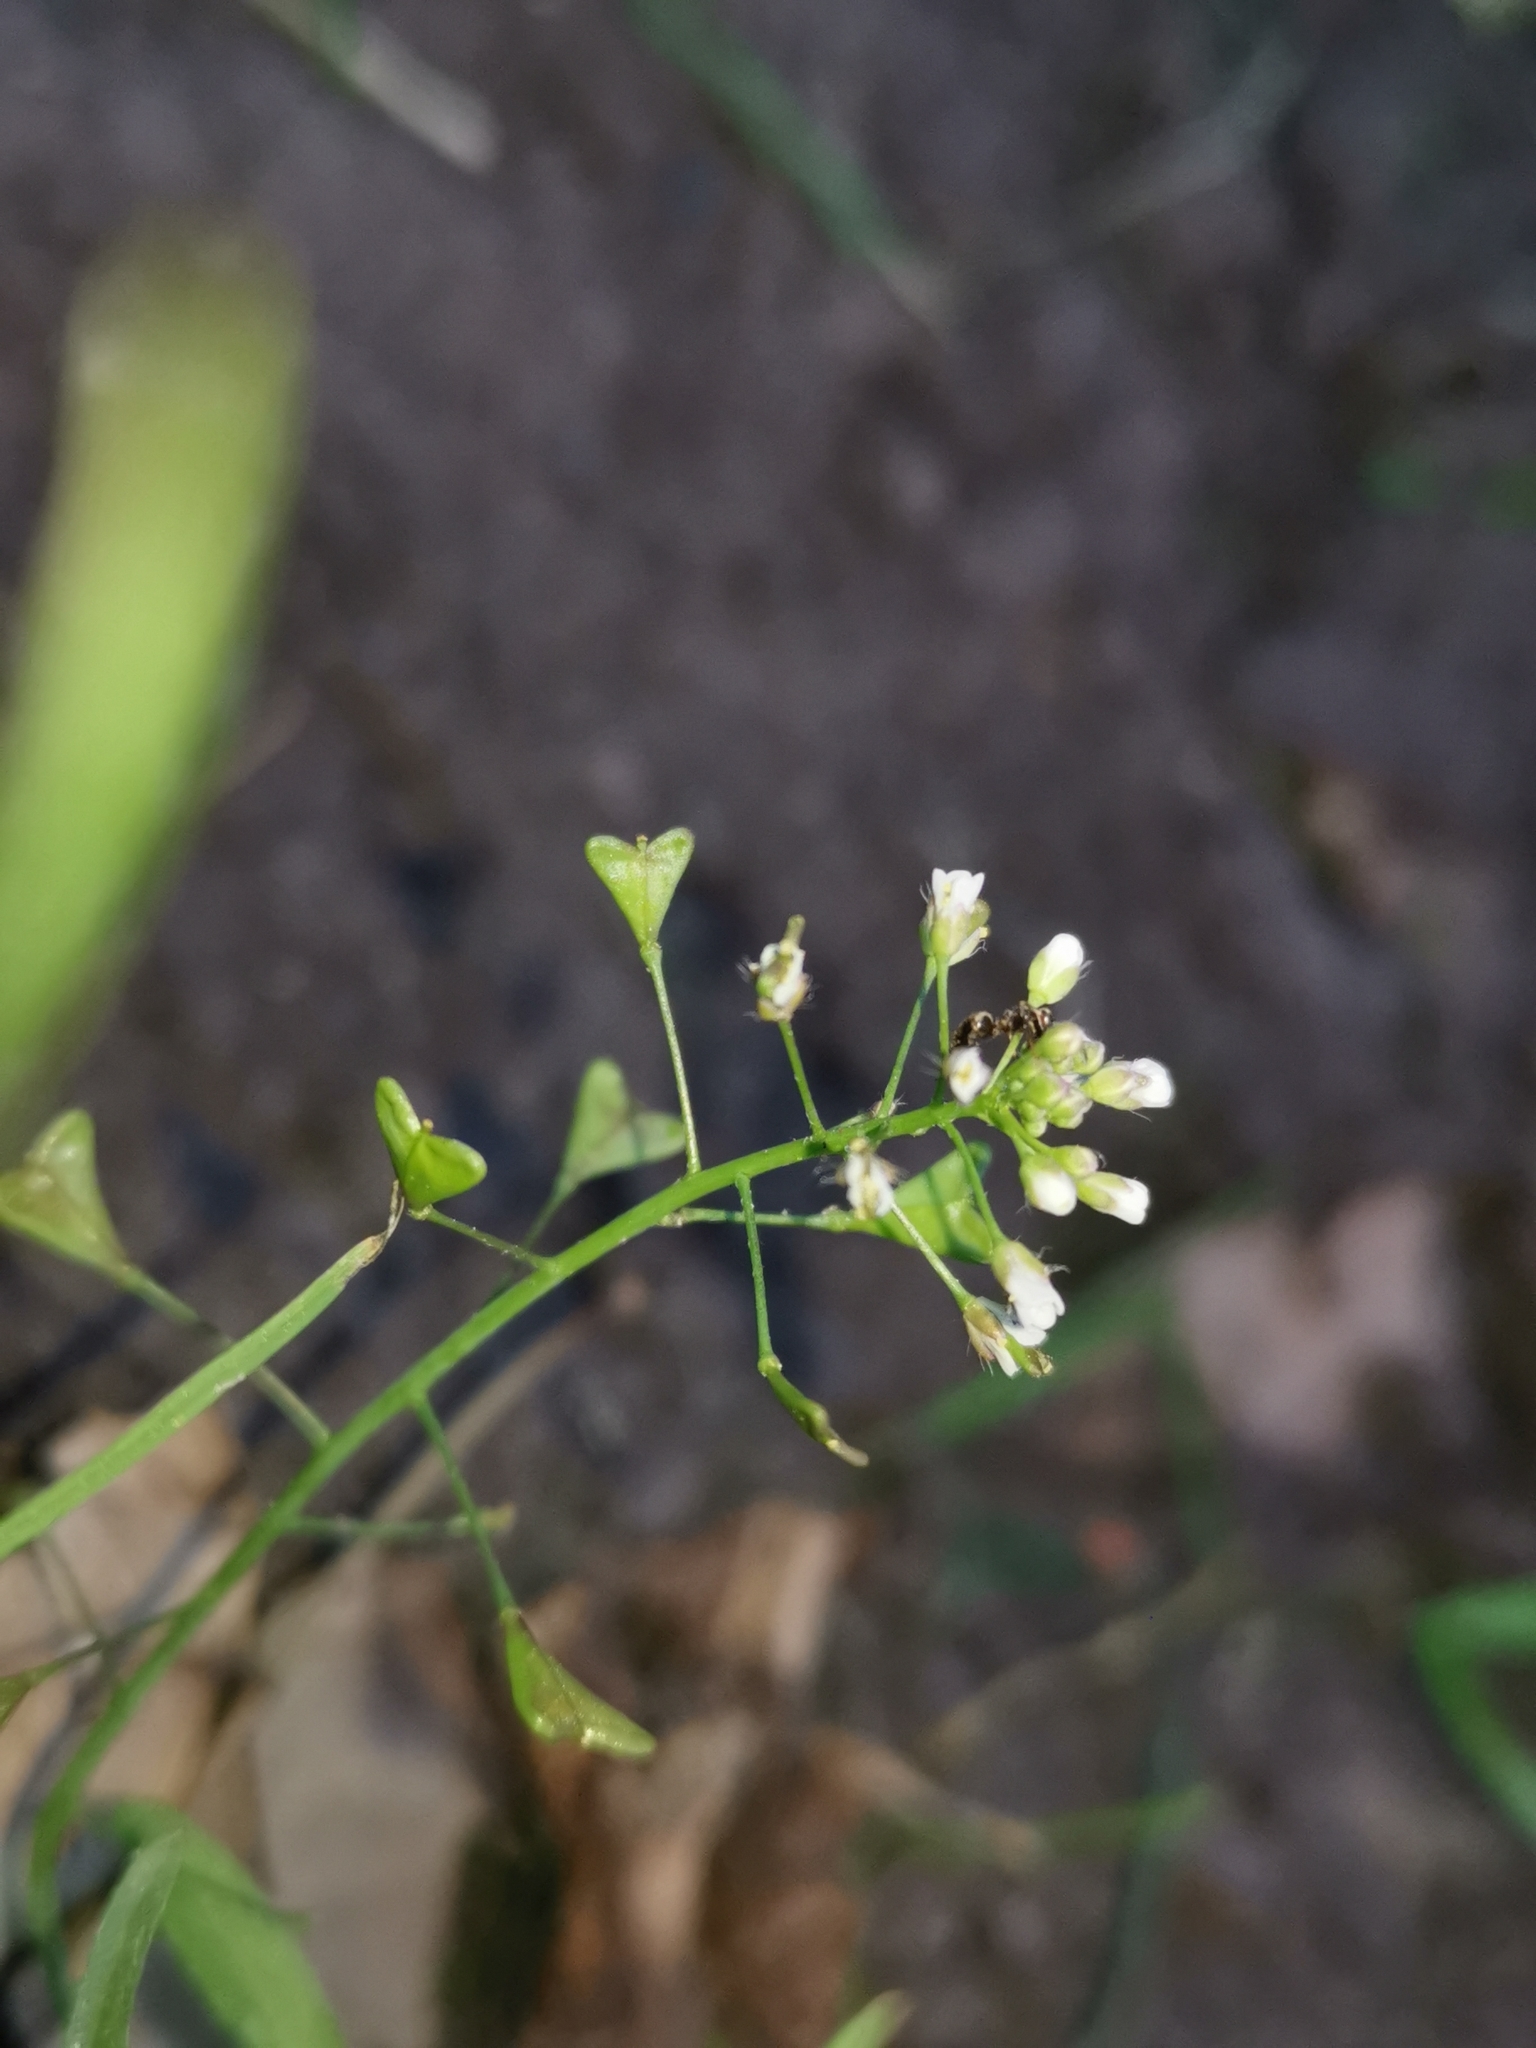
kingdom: Plantae
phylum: Tracheophyta
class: Magnoliopsida
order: Brassicales
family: Brassicaceae
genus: Capsella
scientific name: Capsella bursa-pastoris
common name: Shepherd's purse
